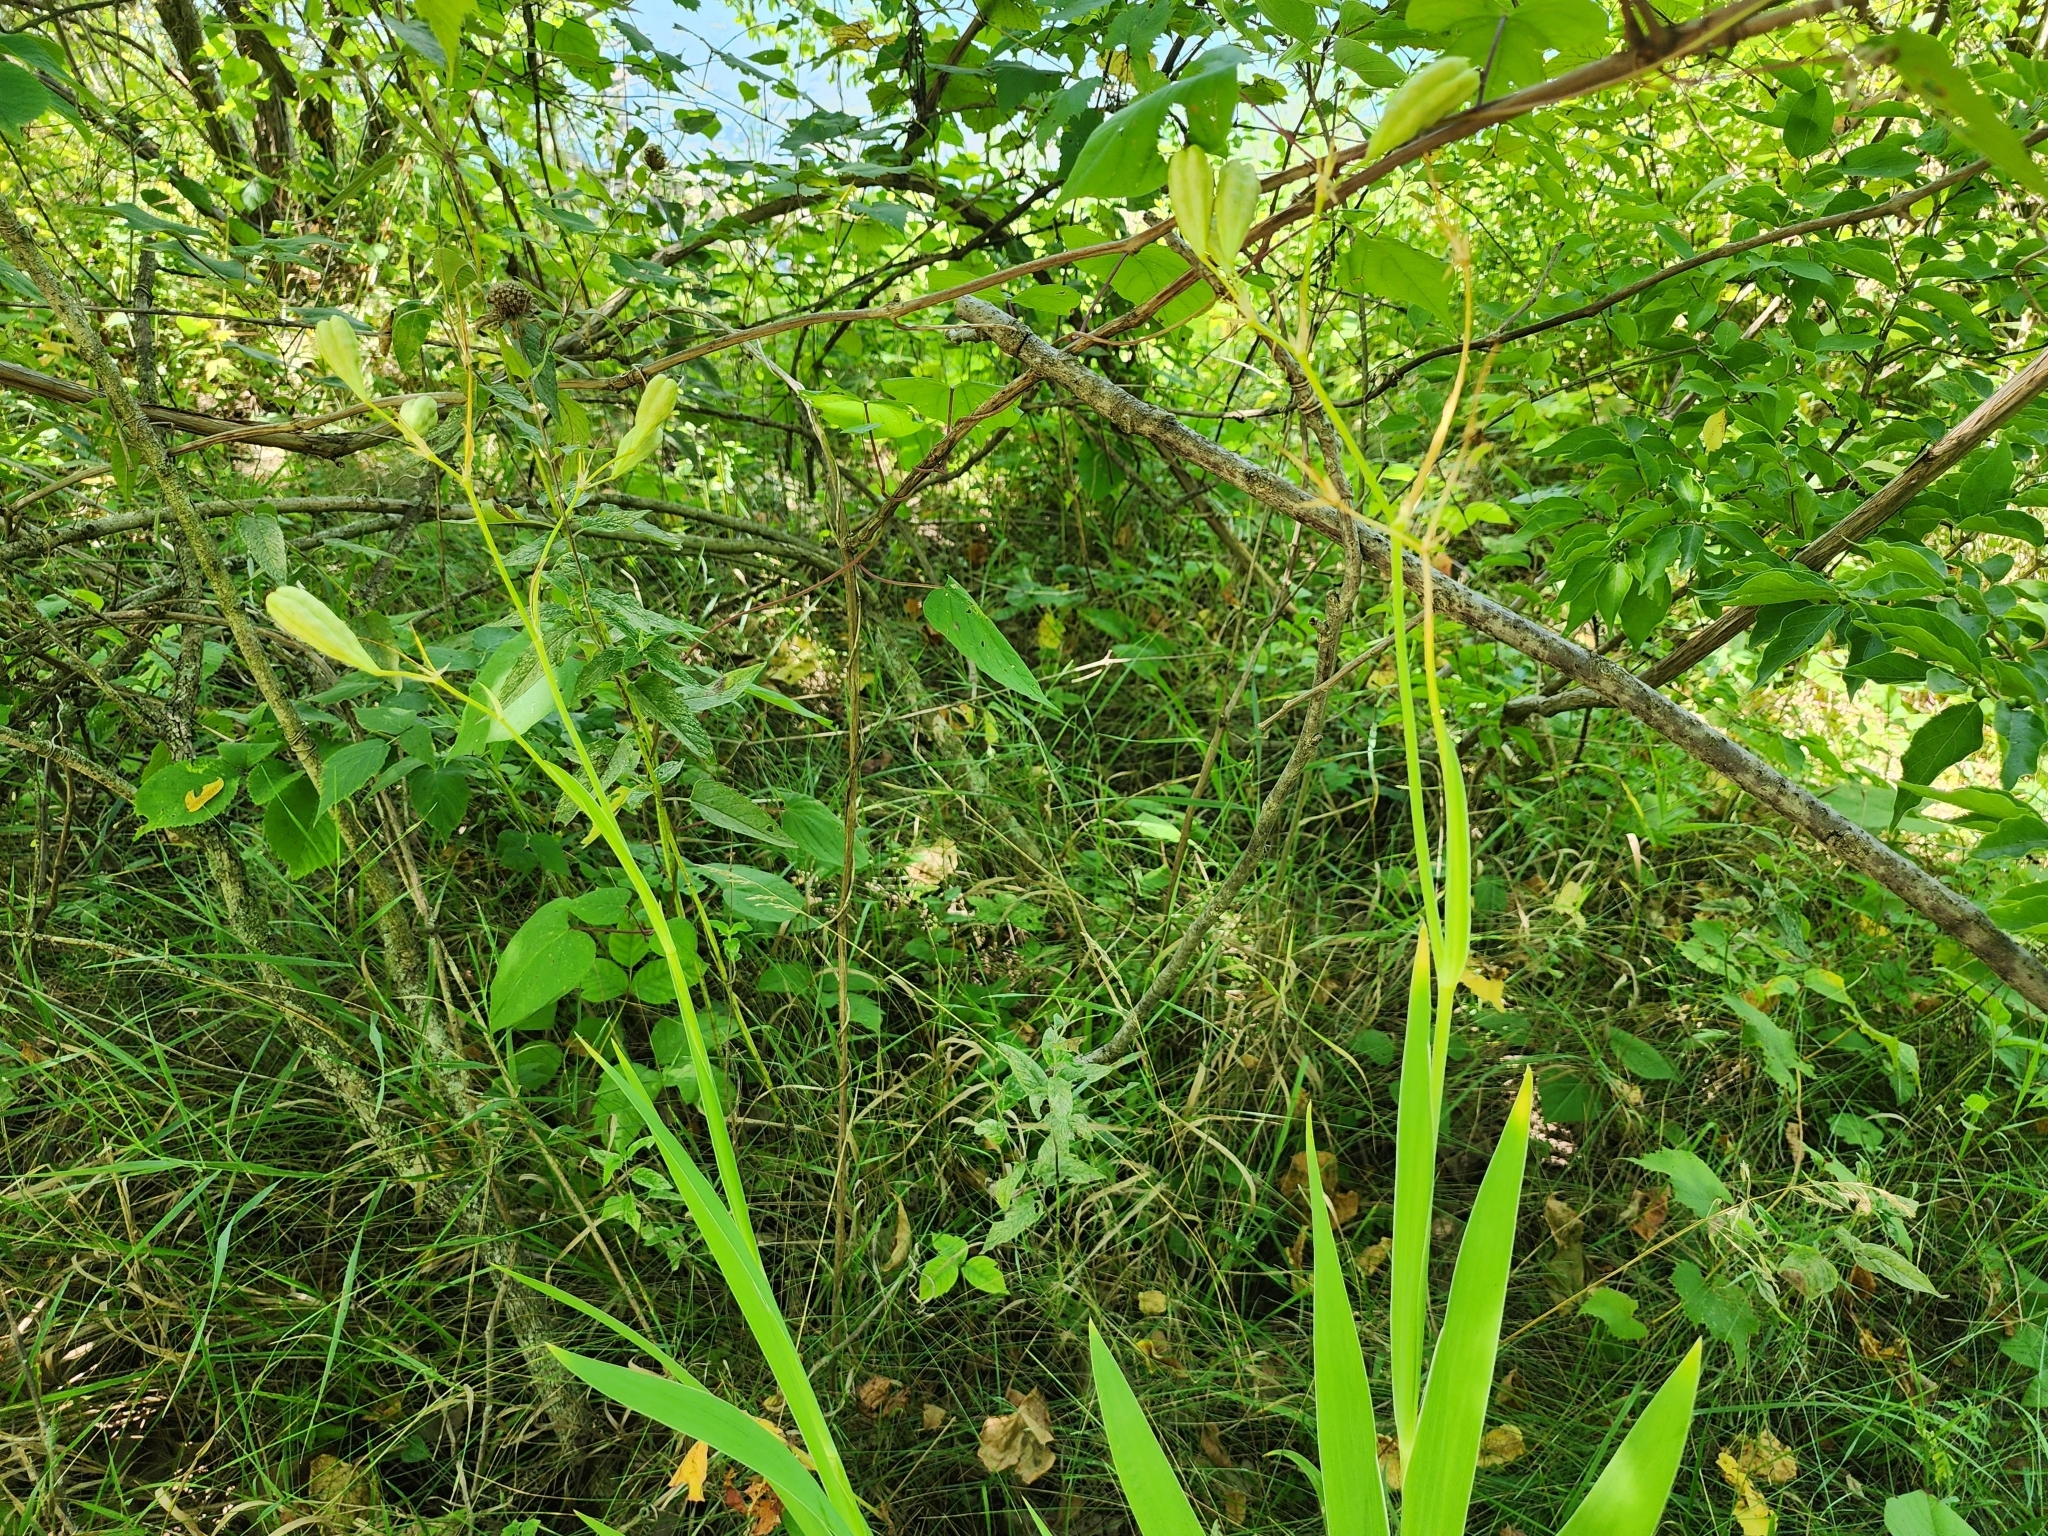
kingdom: Plantae
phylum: Tracheophyta
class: Liliopsida
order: Asparagales
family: Iridaceae
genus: Iris
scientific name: Iris domestica
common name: Belamcanda
